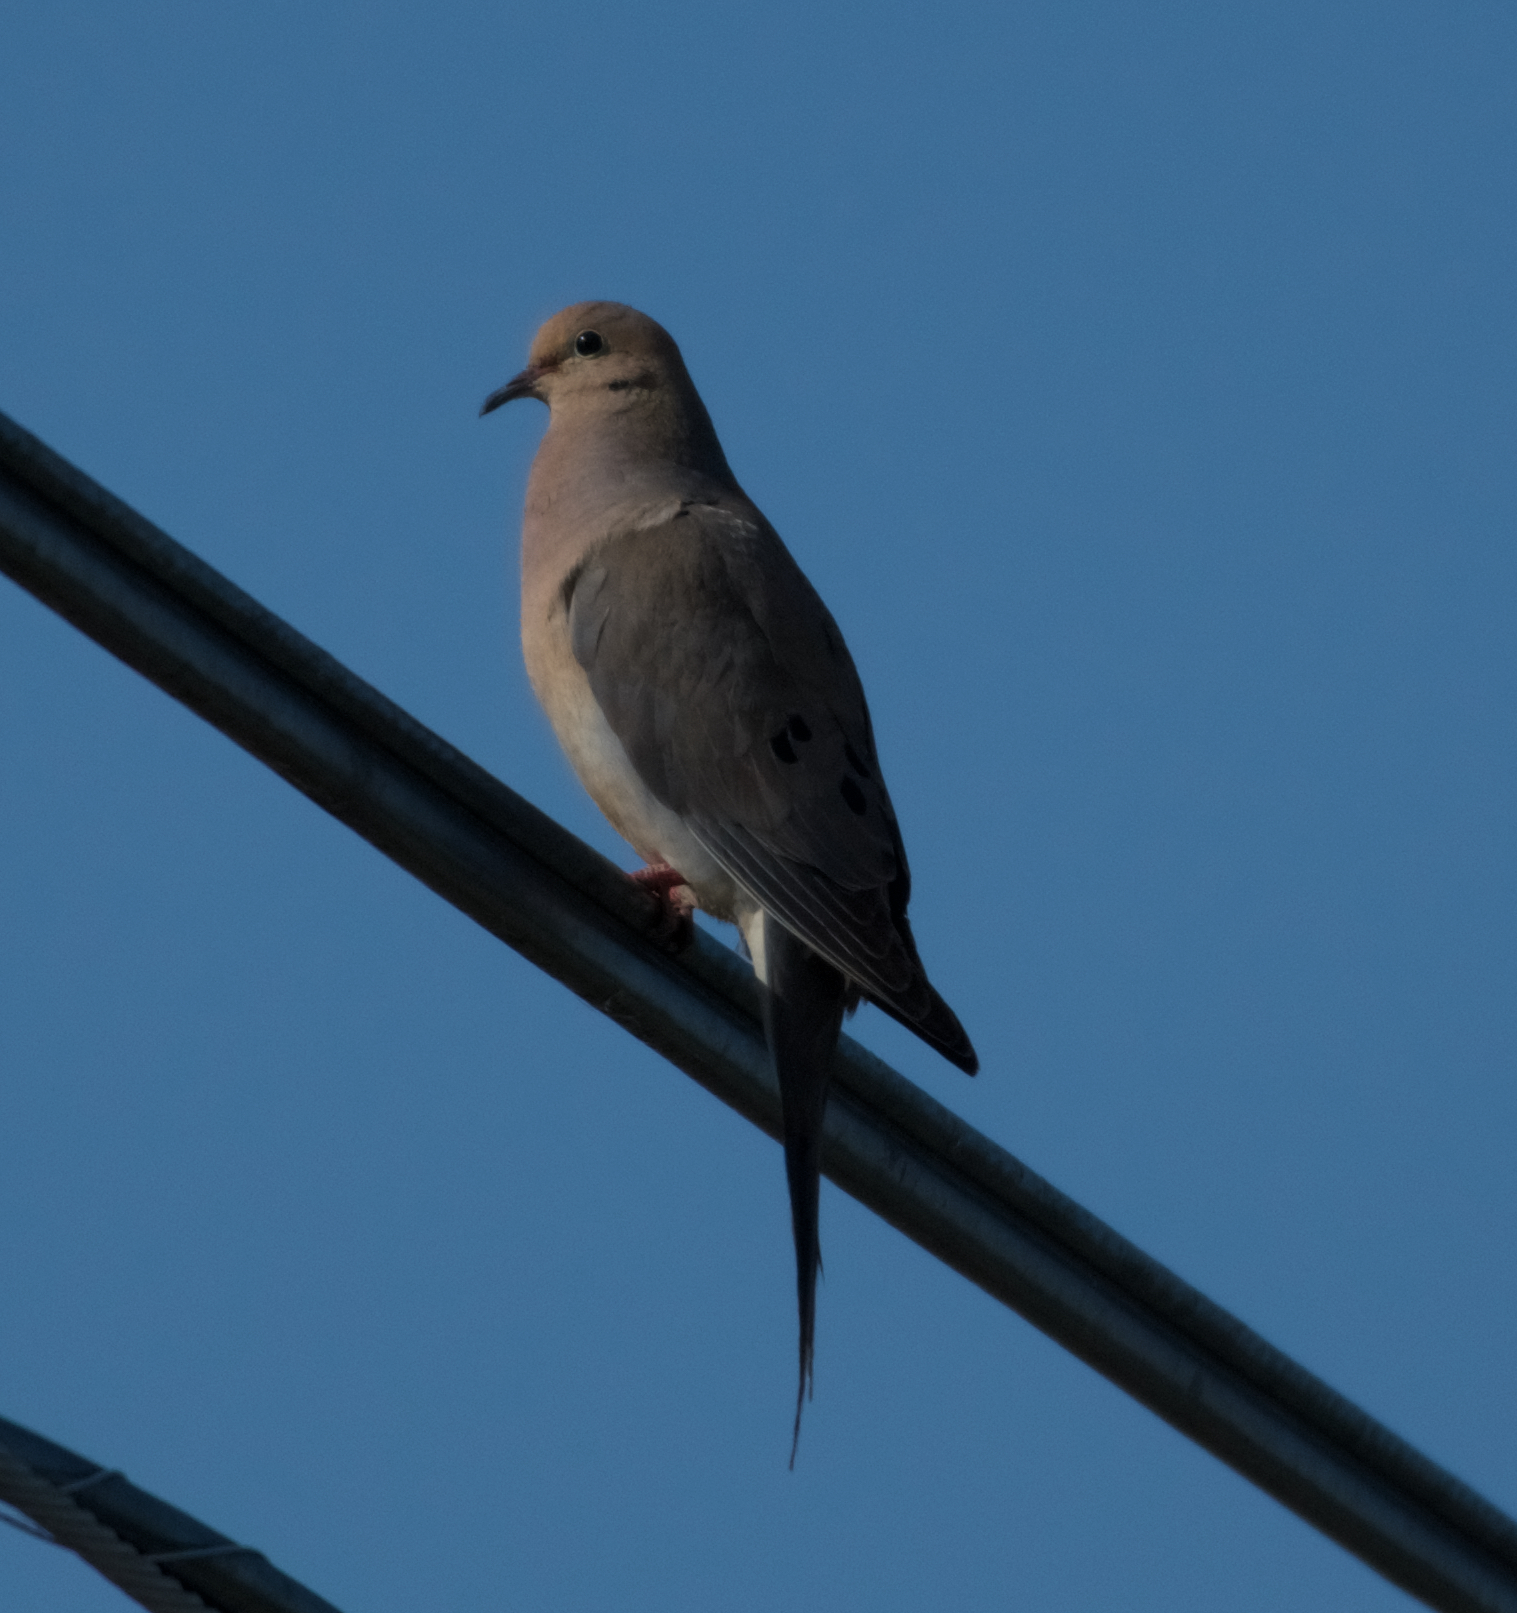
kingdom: Animalia
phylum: Chordata
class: Aves
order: Columbiformes
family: Columbidae
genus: Zenaida
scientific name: Zenaida macroura
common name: Mourning dove
